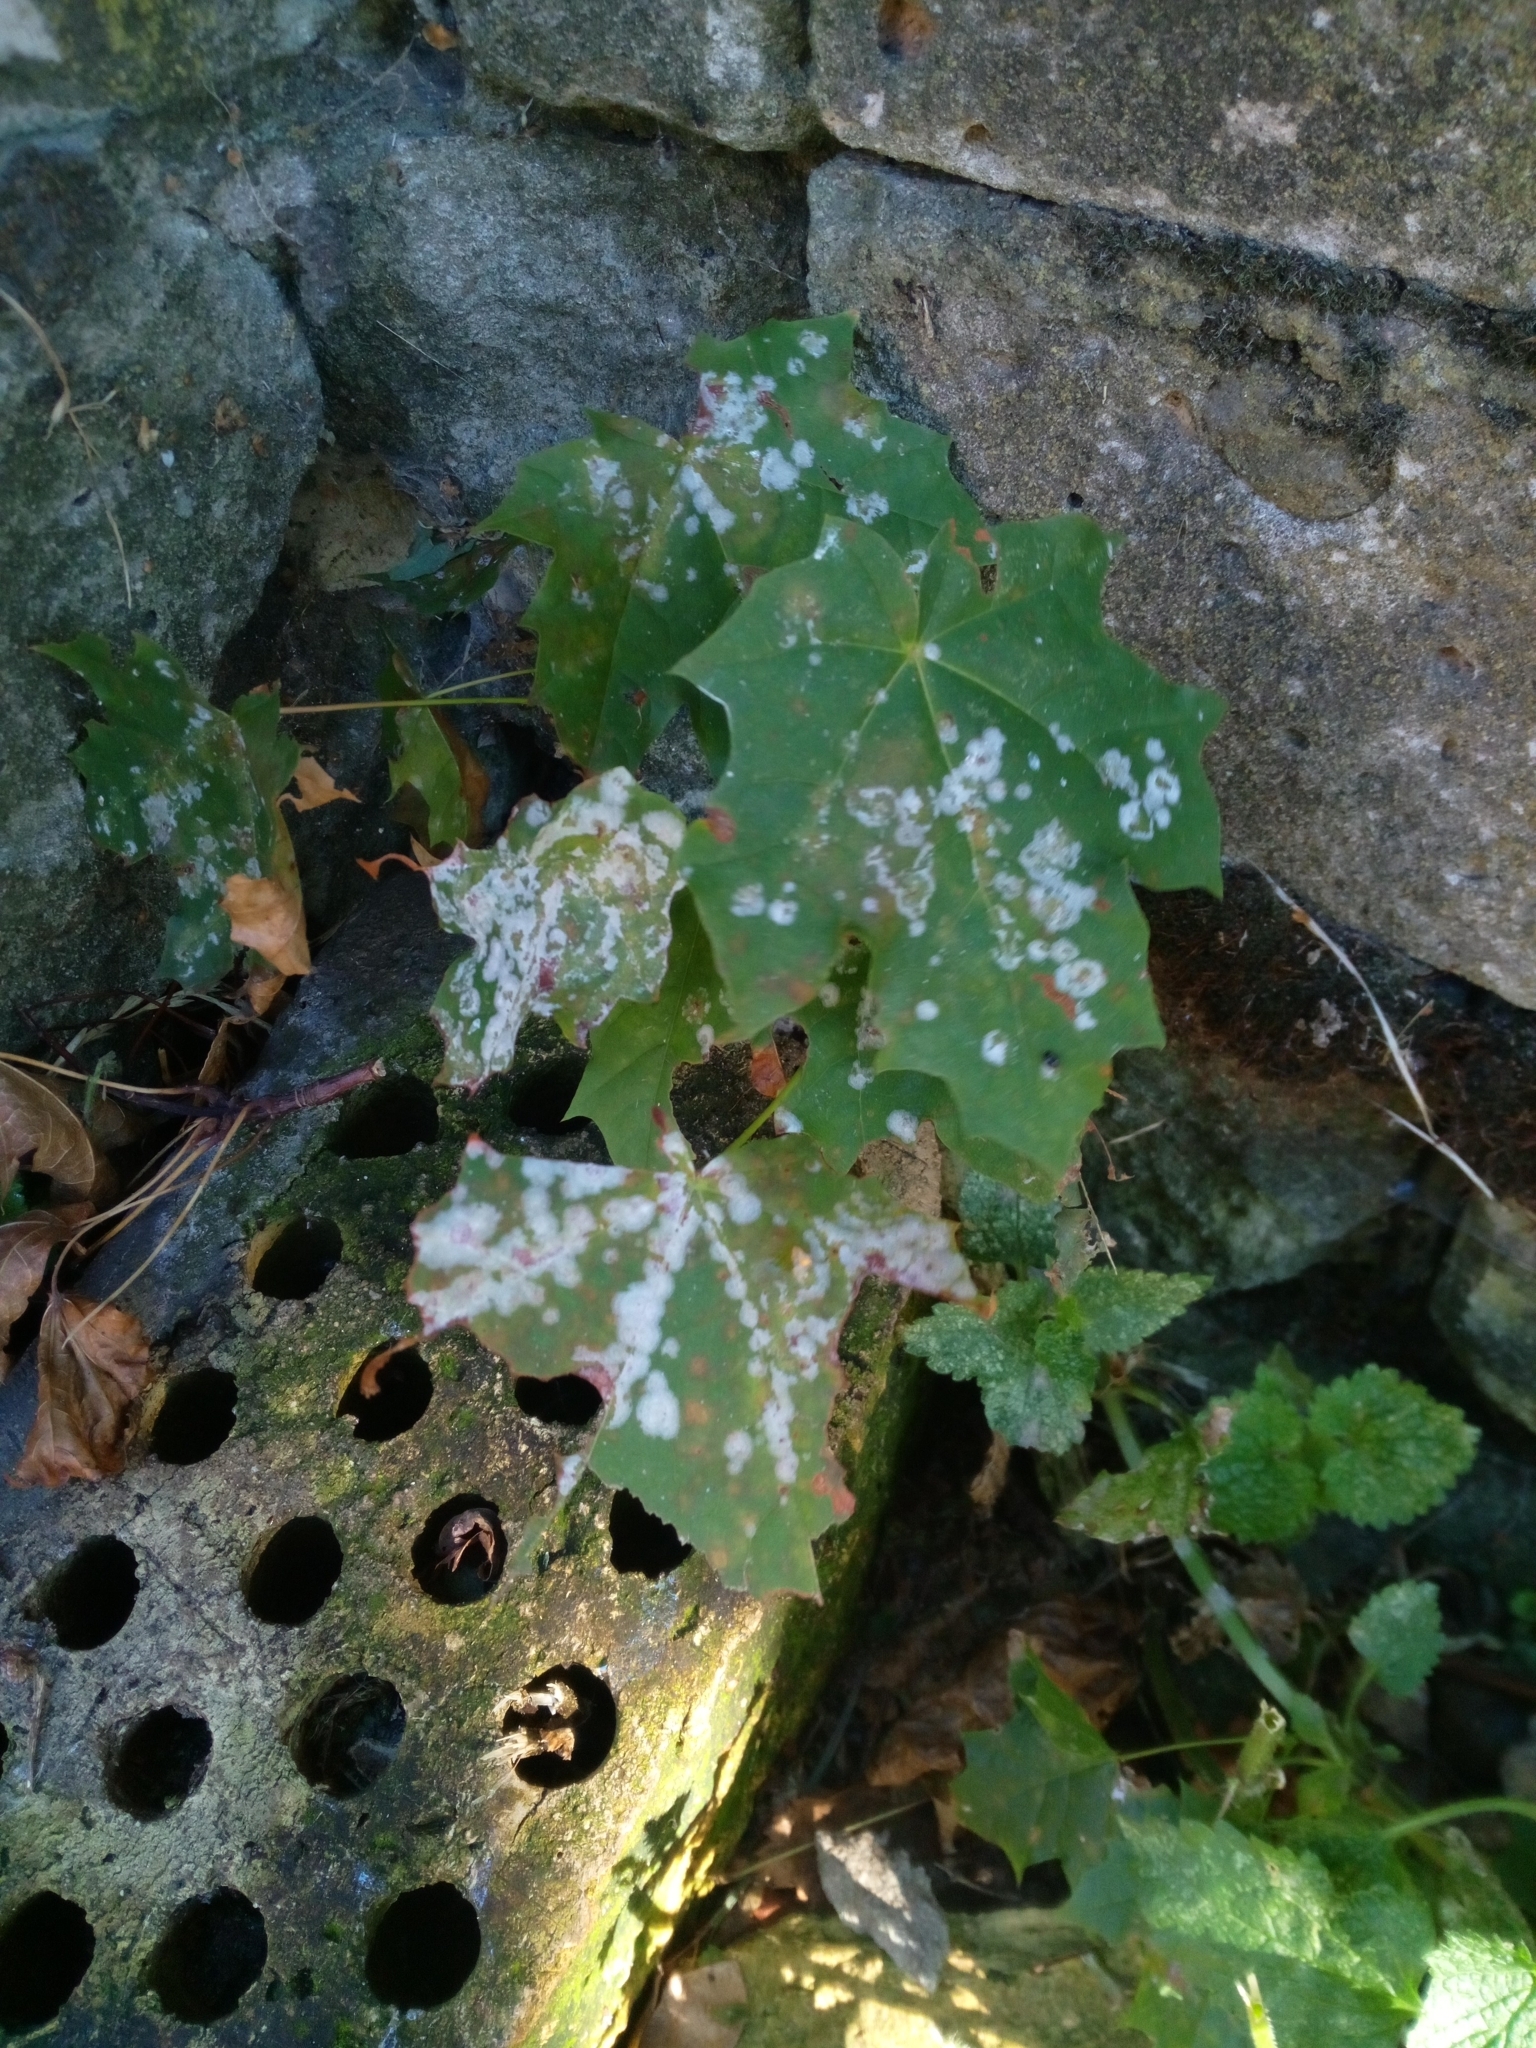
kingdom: Fungi
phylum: Ascomycota
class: Leotiomycetes
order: Helotiales
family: Erysiphaceae
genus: Sawadaea
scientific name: Sawadaea tulasnei
